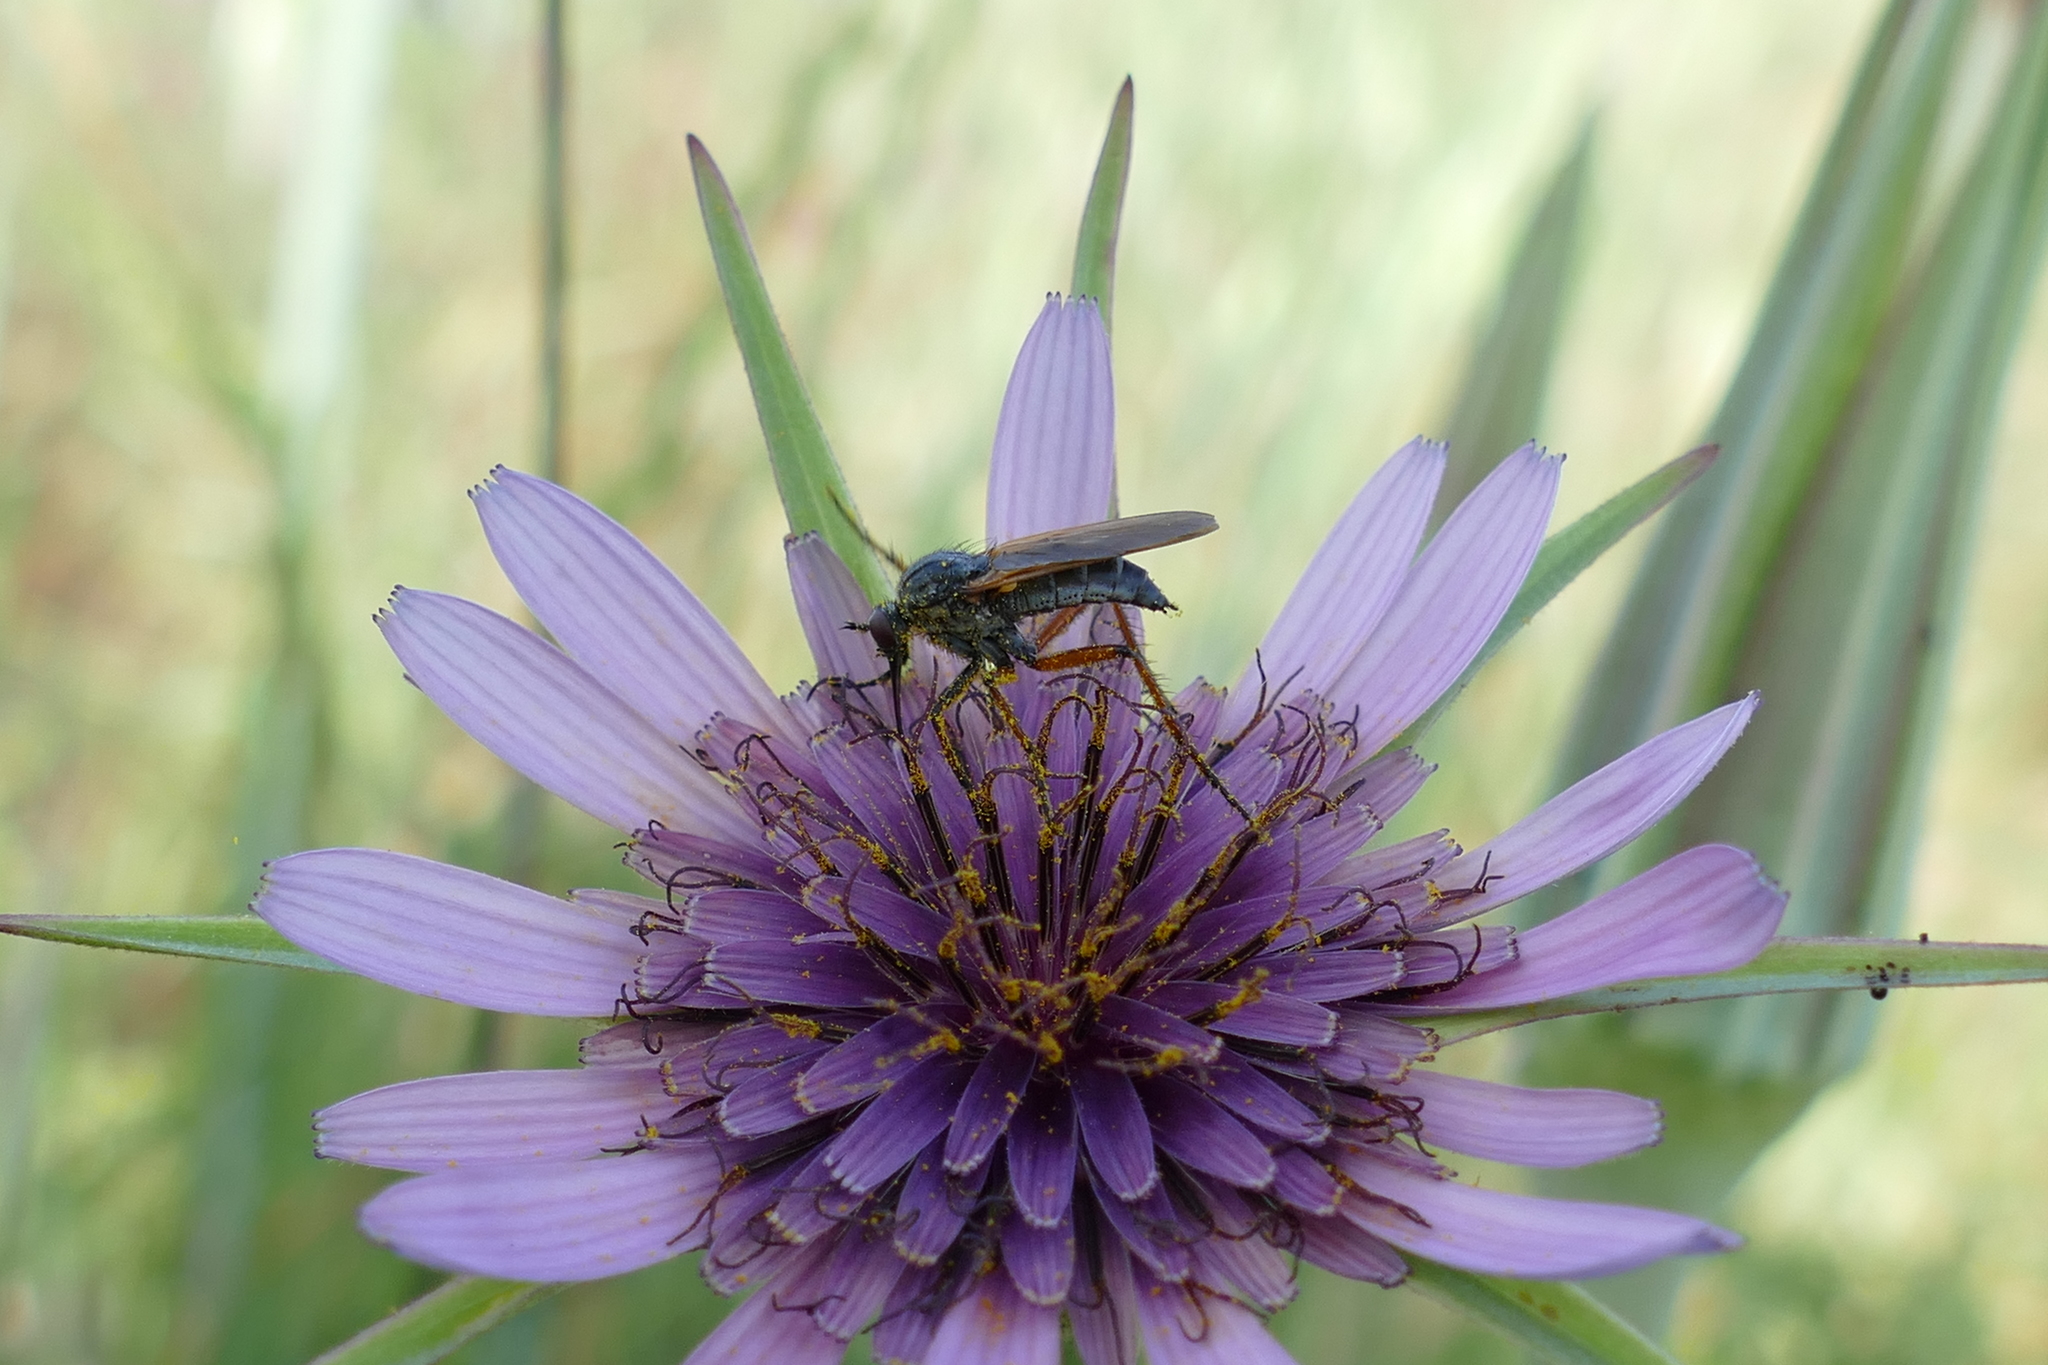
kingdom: Plantae
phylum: Tracheophyta
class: Magnoliopsida
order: Asterales
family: Asteraceae
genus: Tragopogon
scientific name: Tragopogon porrifolius
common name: Salsify
